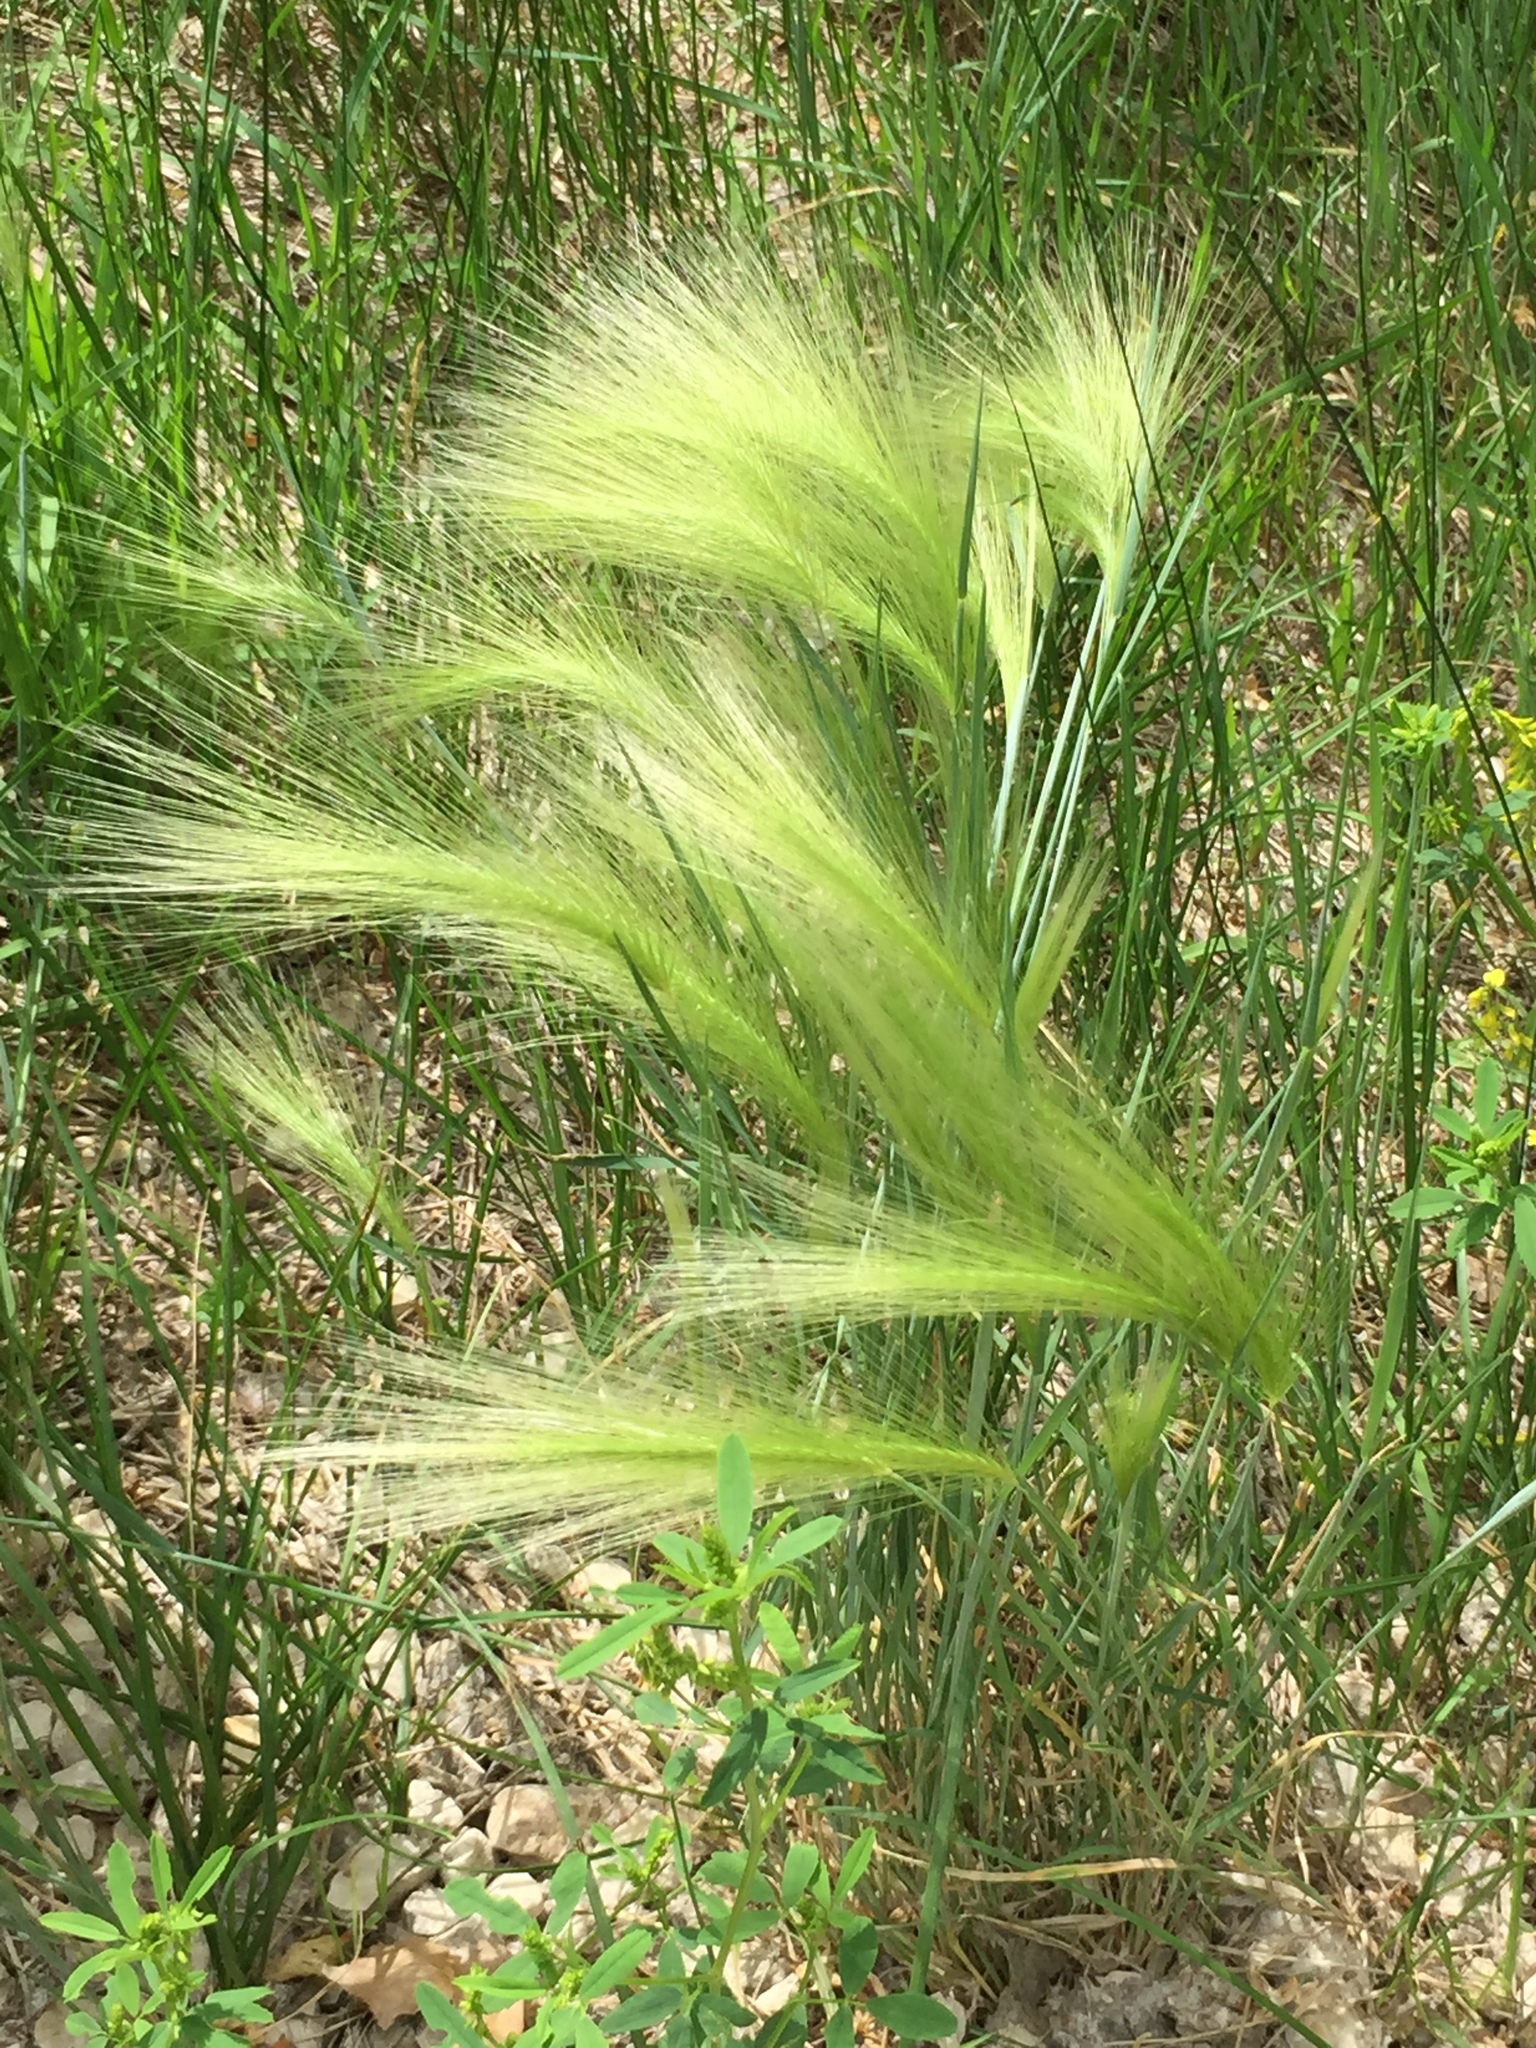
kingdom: Plantae
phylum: Tracheophyta
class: Liliopsida
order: Poales
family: Poaceae
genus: Hordeum
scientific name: Hordeum jubatum
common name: Foxtail barley
